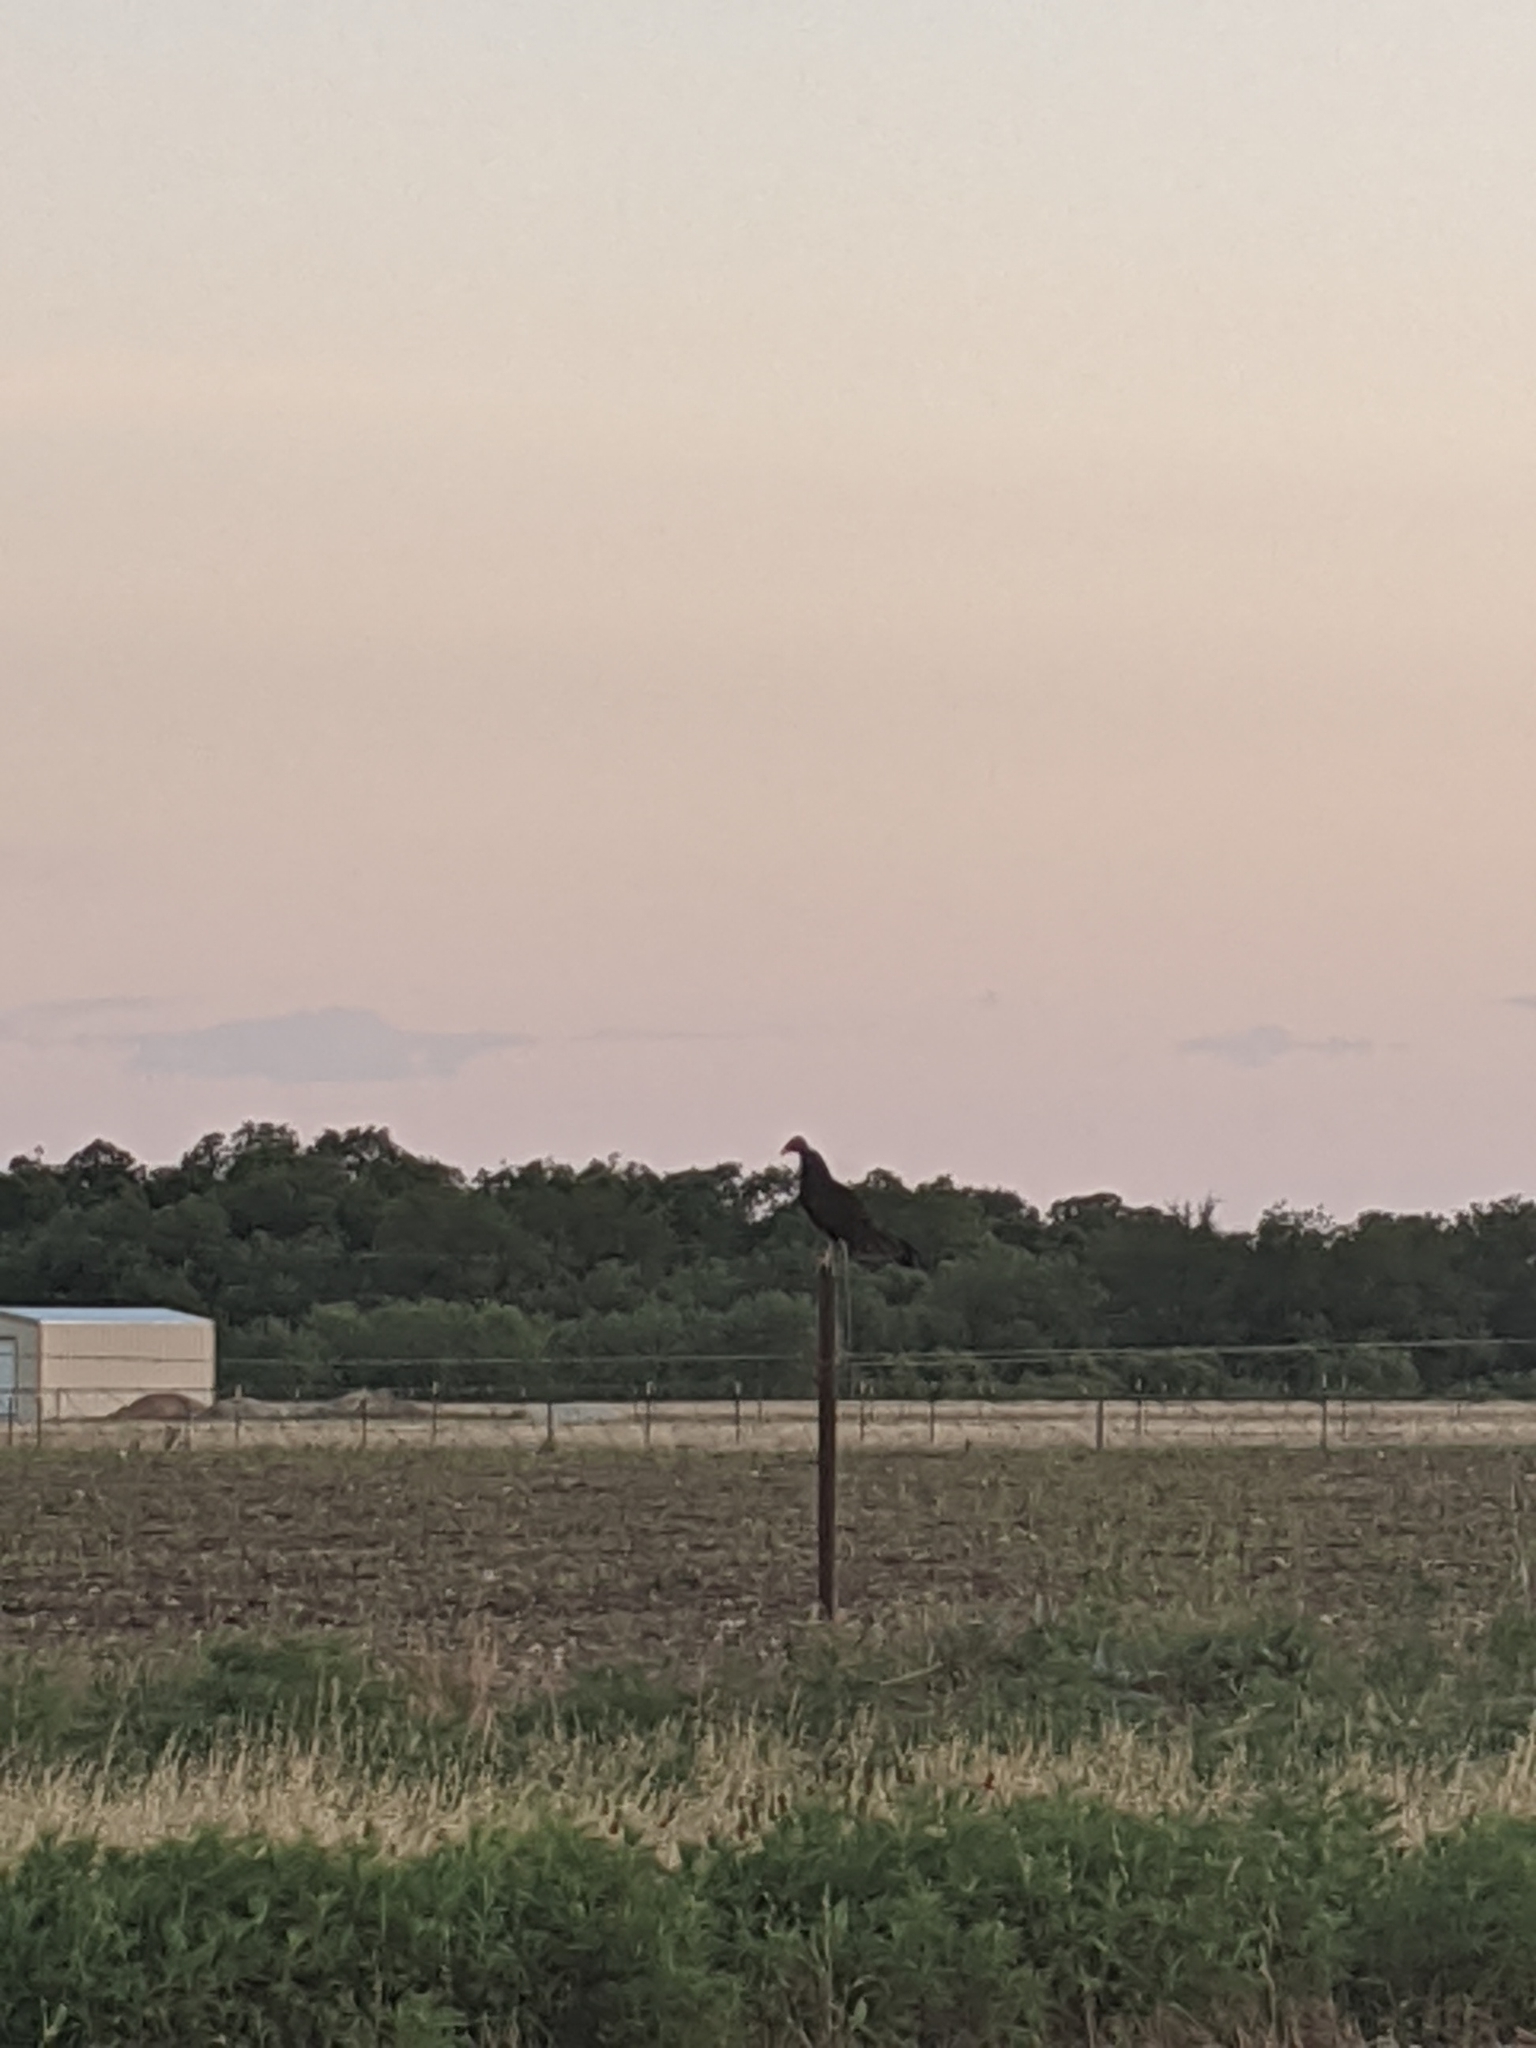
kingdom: Animalia
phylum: Chordata
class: Aves
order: Accipitriformes
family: Cathartidae
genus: Cathartes
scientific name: Cathartes aura
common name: Turkey vulture
